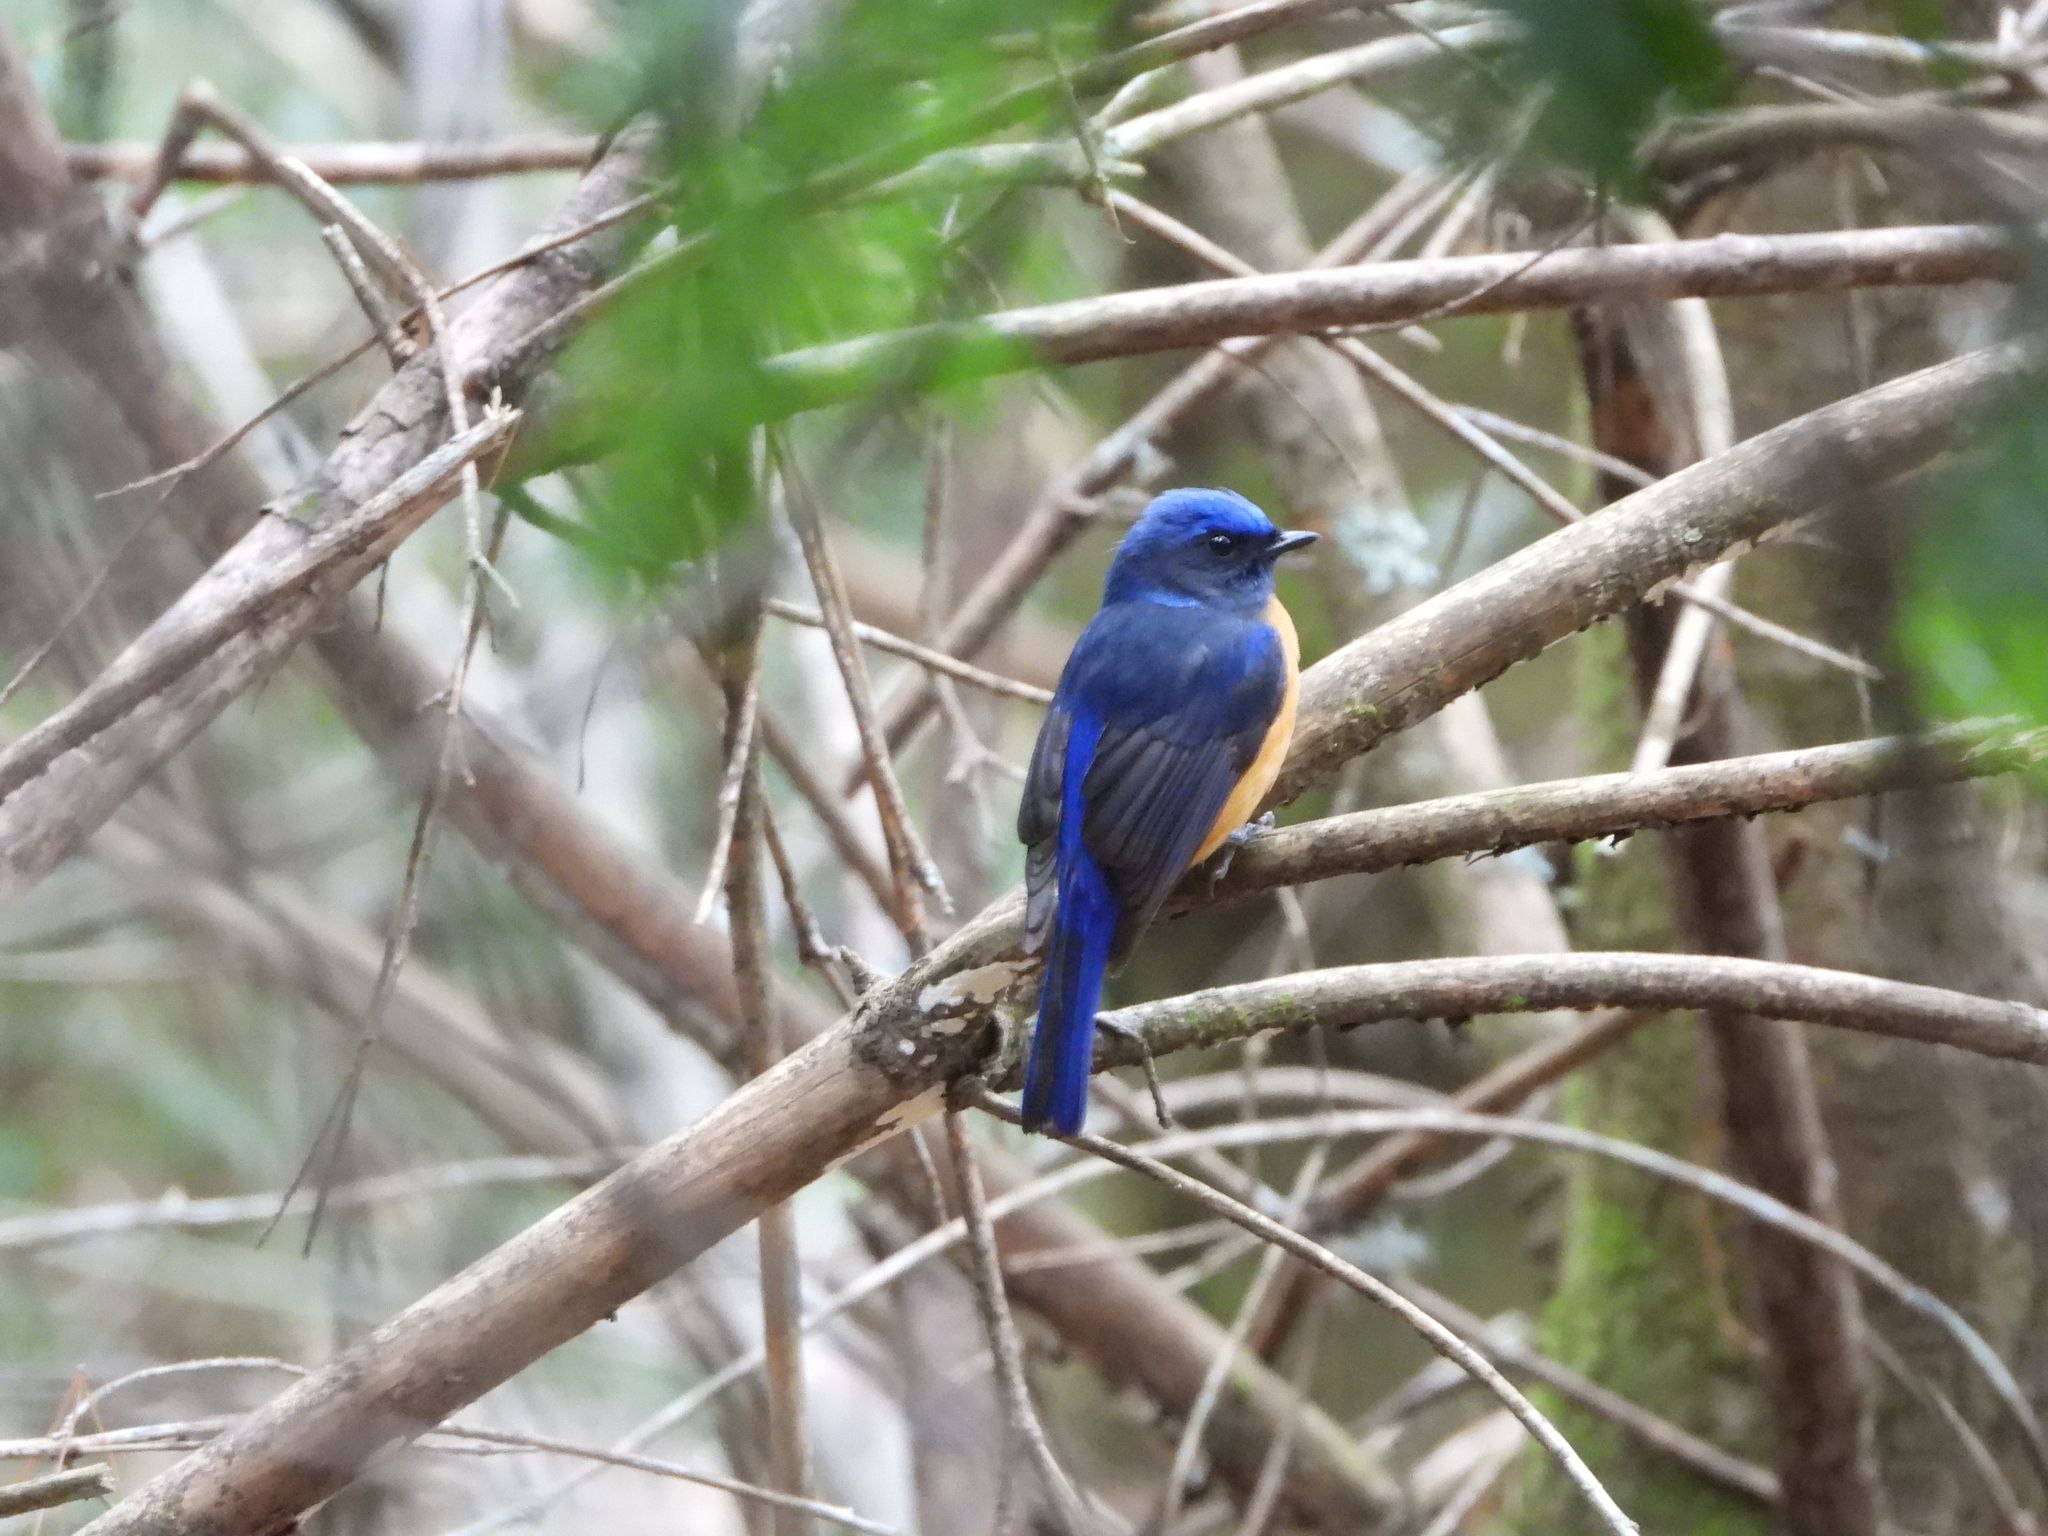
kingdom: Animalia
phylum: Chordata
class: Aves
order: Passeriformes
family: Muscicapidae
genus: Niltava
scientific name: Niltava vivida
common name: Vivid niltava
